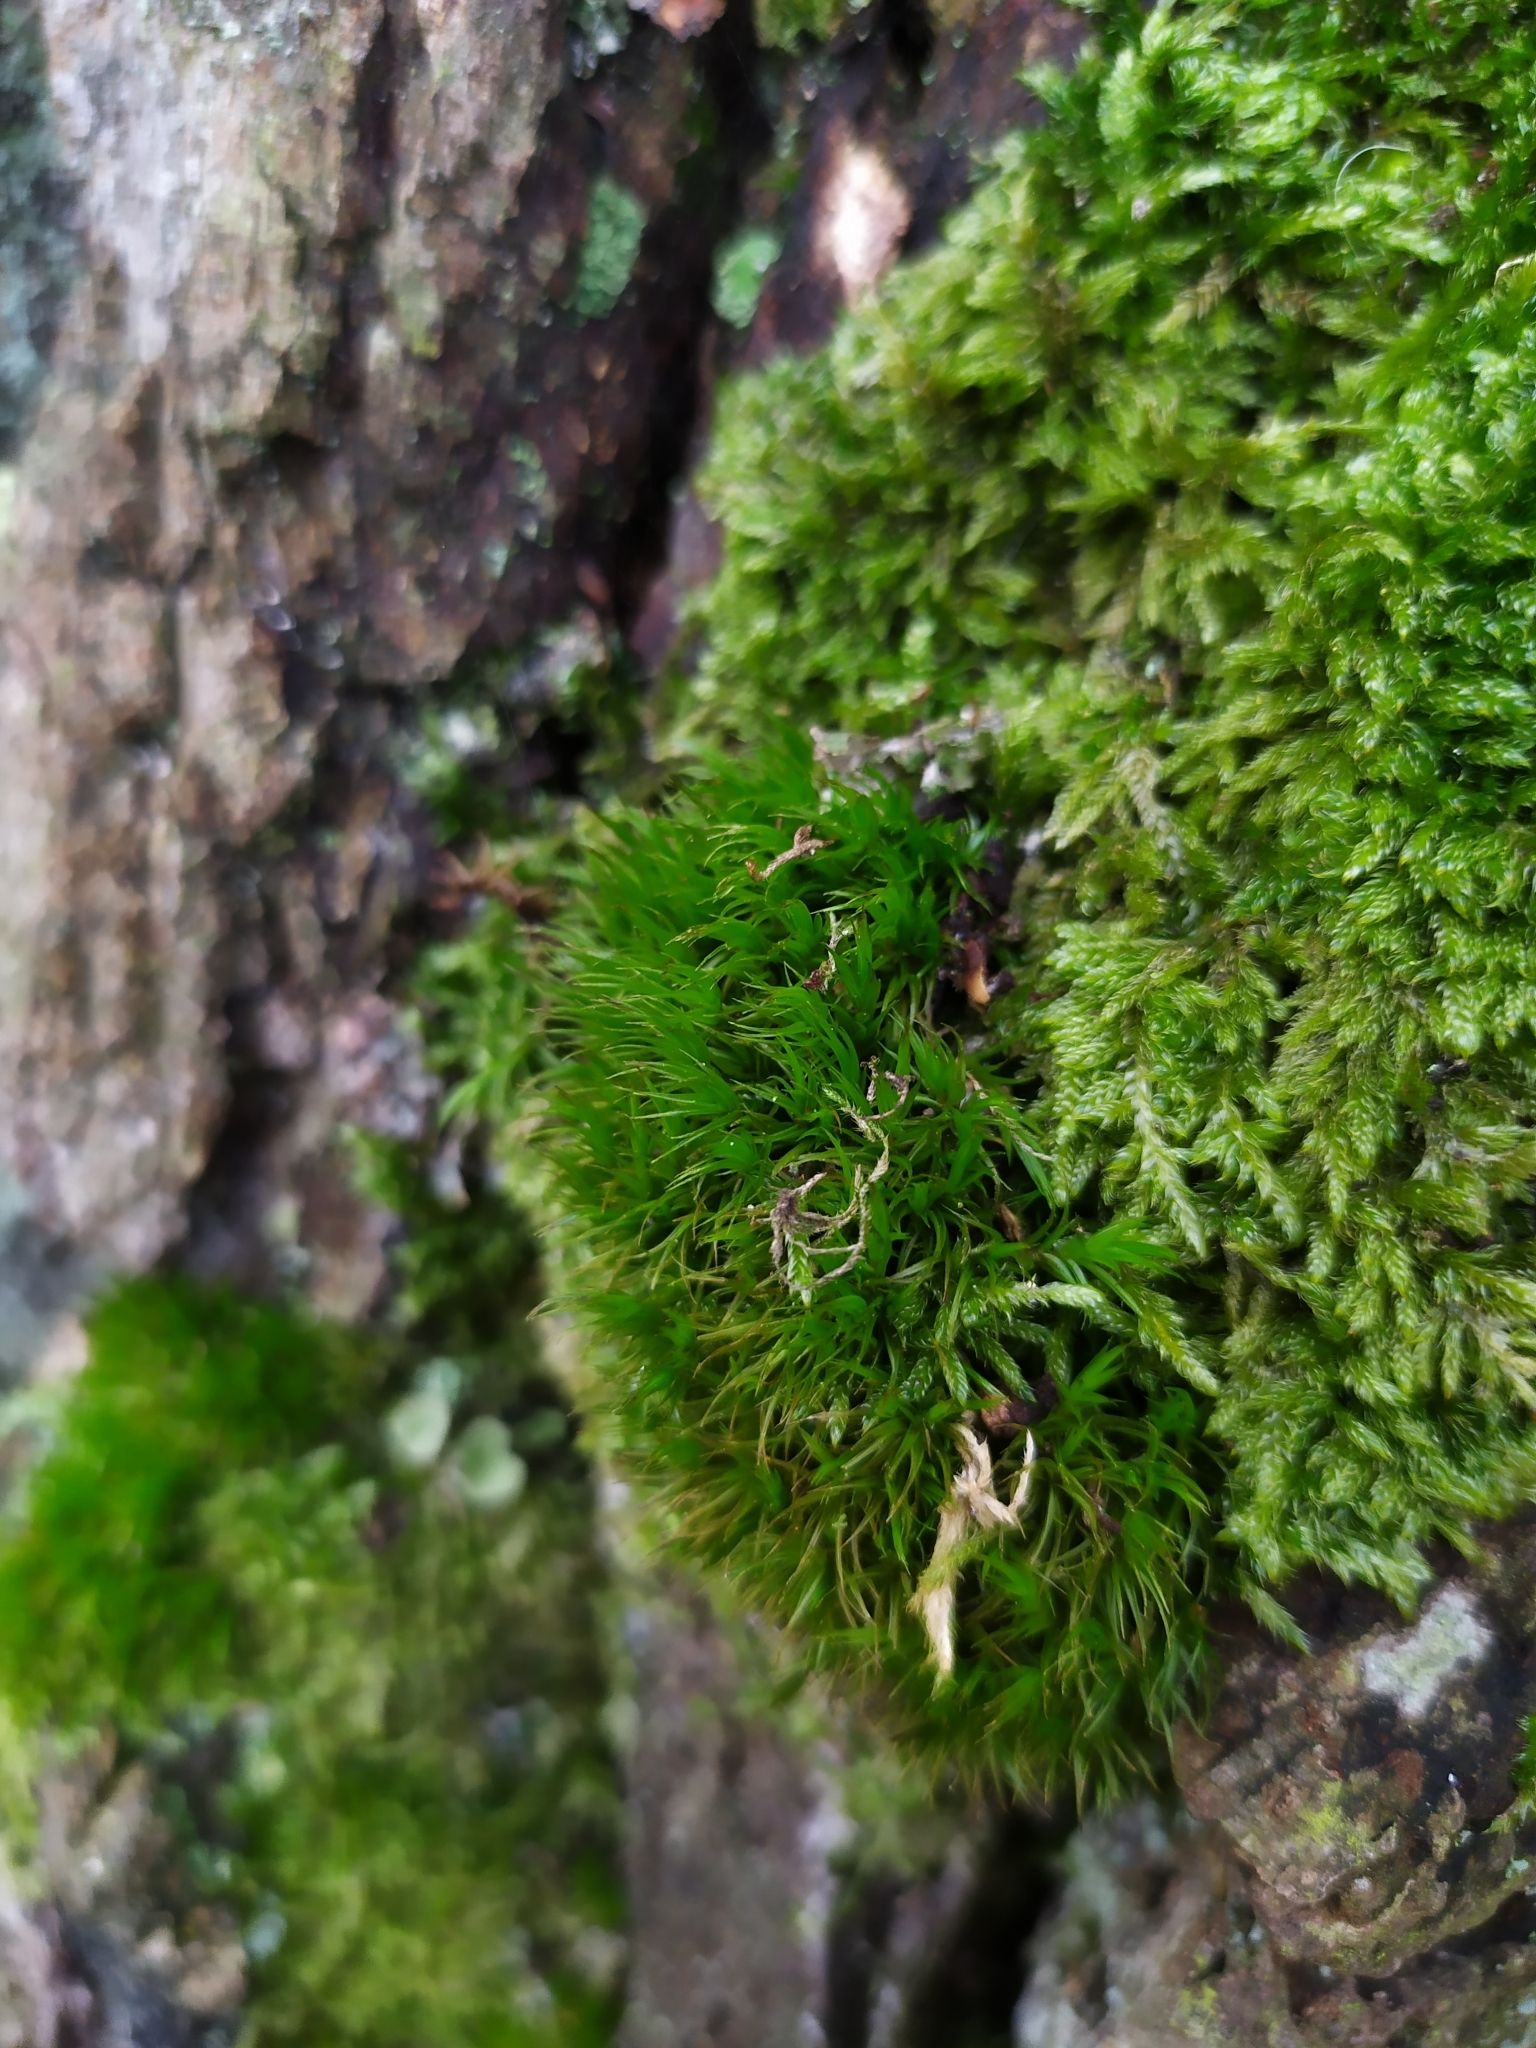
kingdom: Plantae
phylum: Bryophyta
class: Bryopsida
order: Dicranales
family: Dicranaceae
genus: Dicranum
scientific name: Dicranum scoparium
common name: Broom fork-moss
